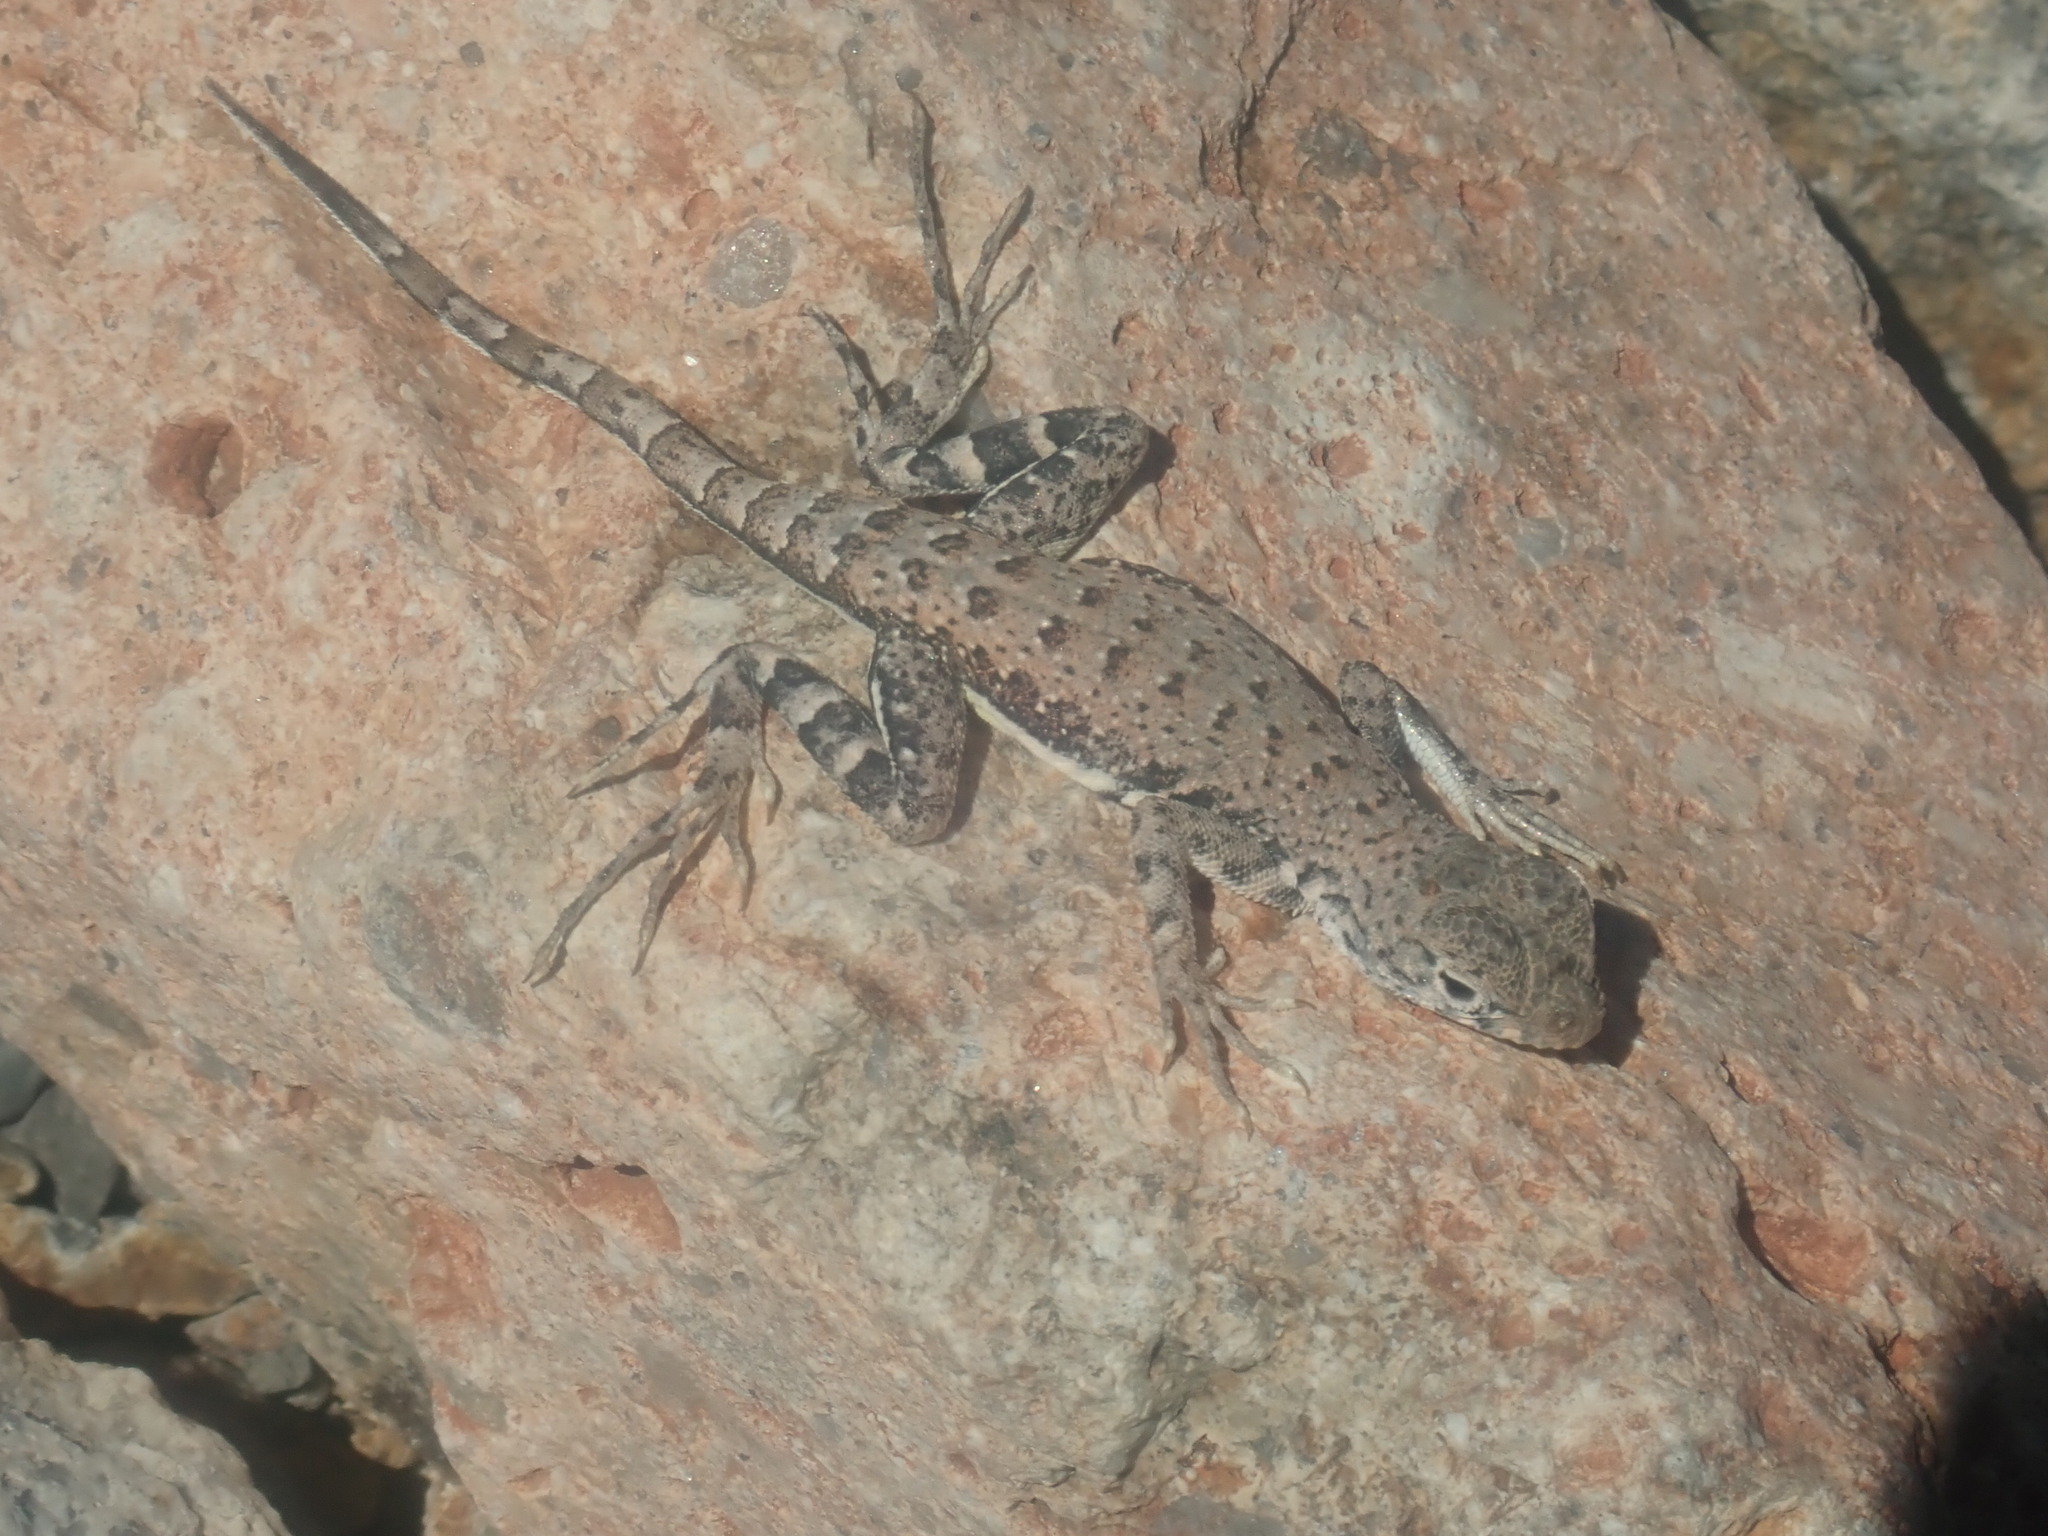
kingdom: Animalia
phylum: Chordata
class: Squamata
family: Phrynosomatidae
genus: Callisaurus
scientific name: Callisaurus draconoides
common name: Zebra-tailed lizard
